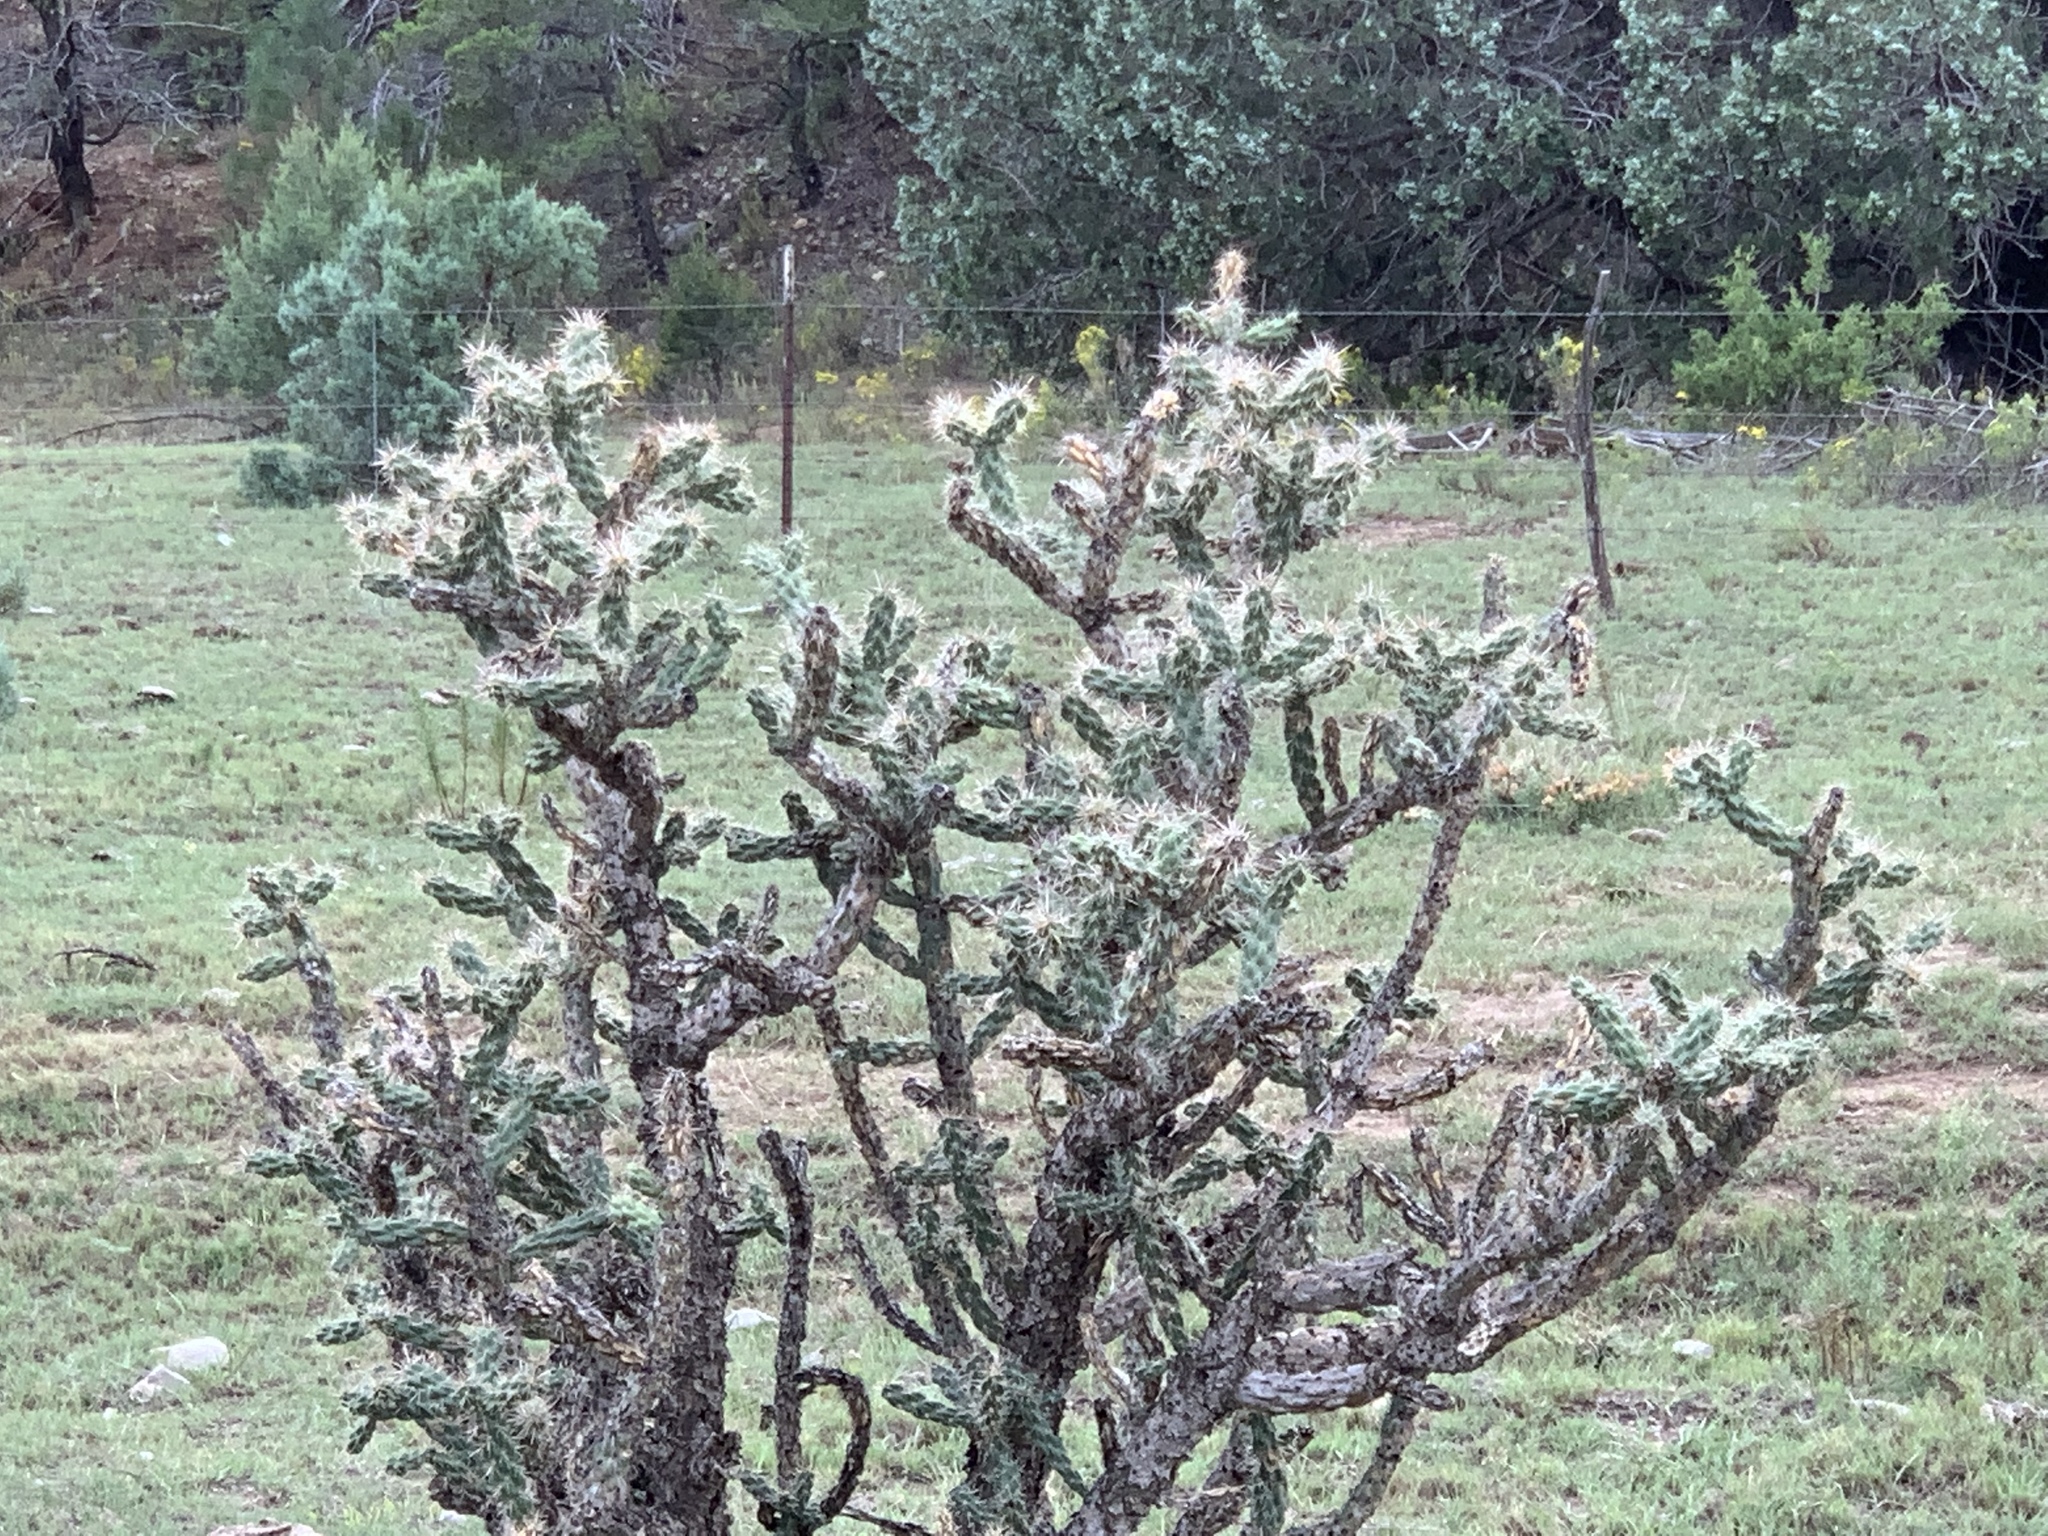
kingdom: Plantae
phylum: Tracheophyta
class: Magnoliopsida
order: Caryophyllales
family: Cactaceae
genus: Cylindropuntia
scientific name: Cylindropuntia imbricata
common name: Candelabrum cactus
